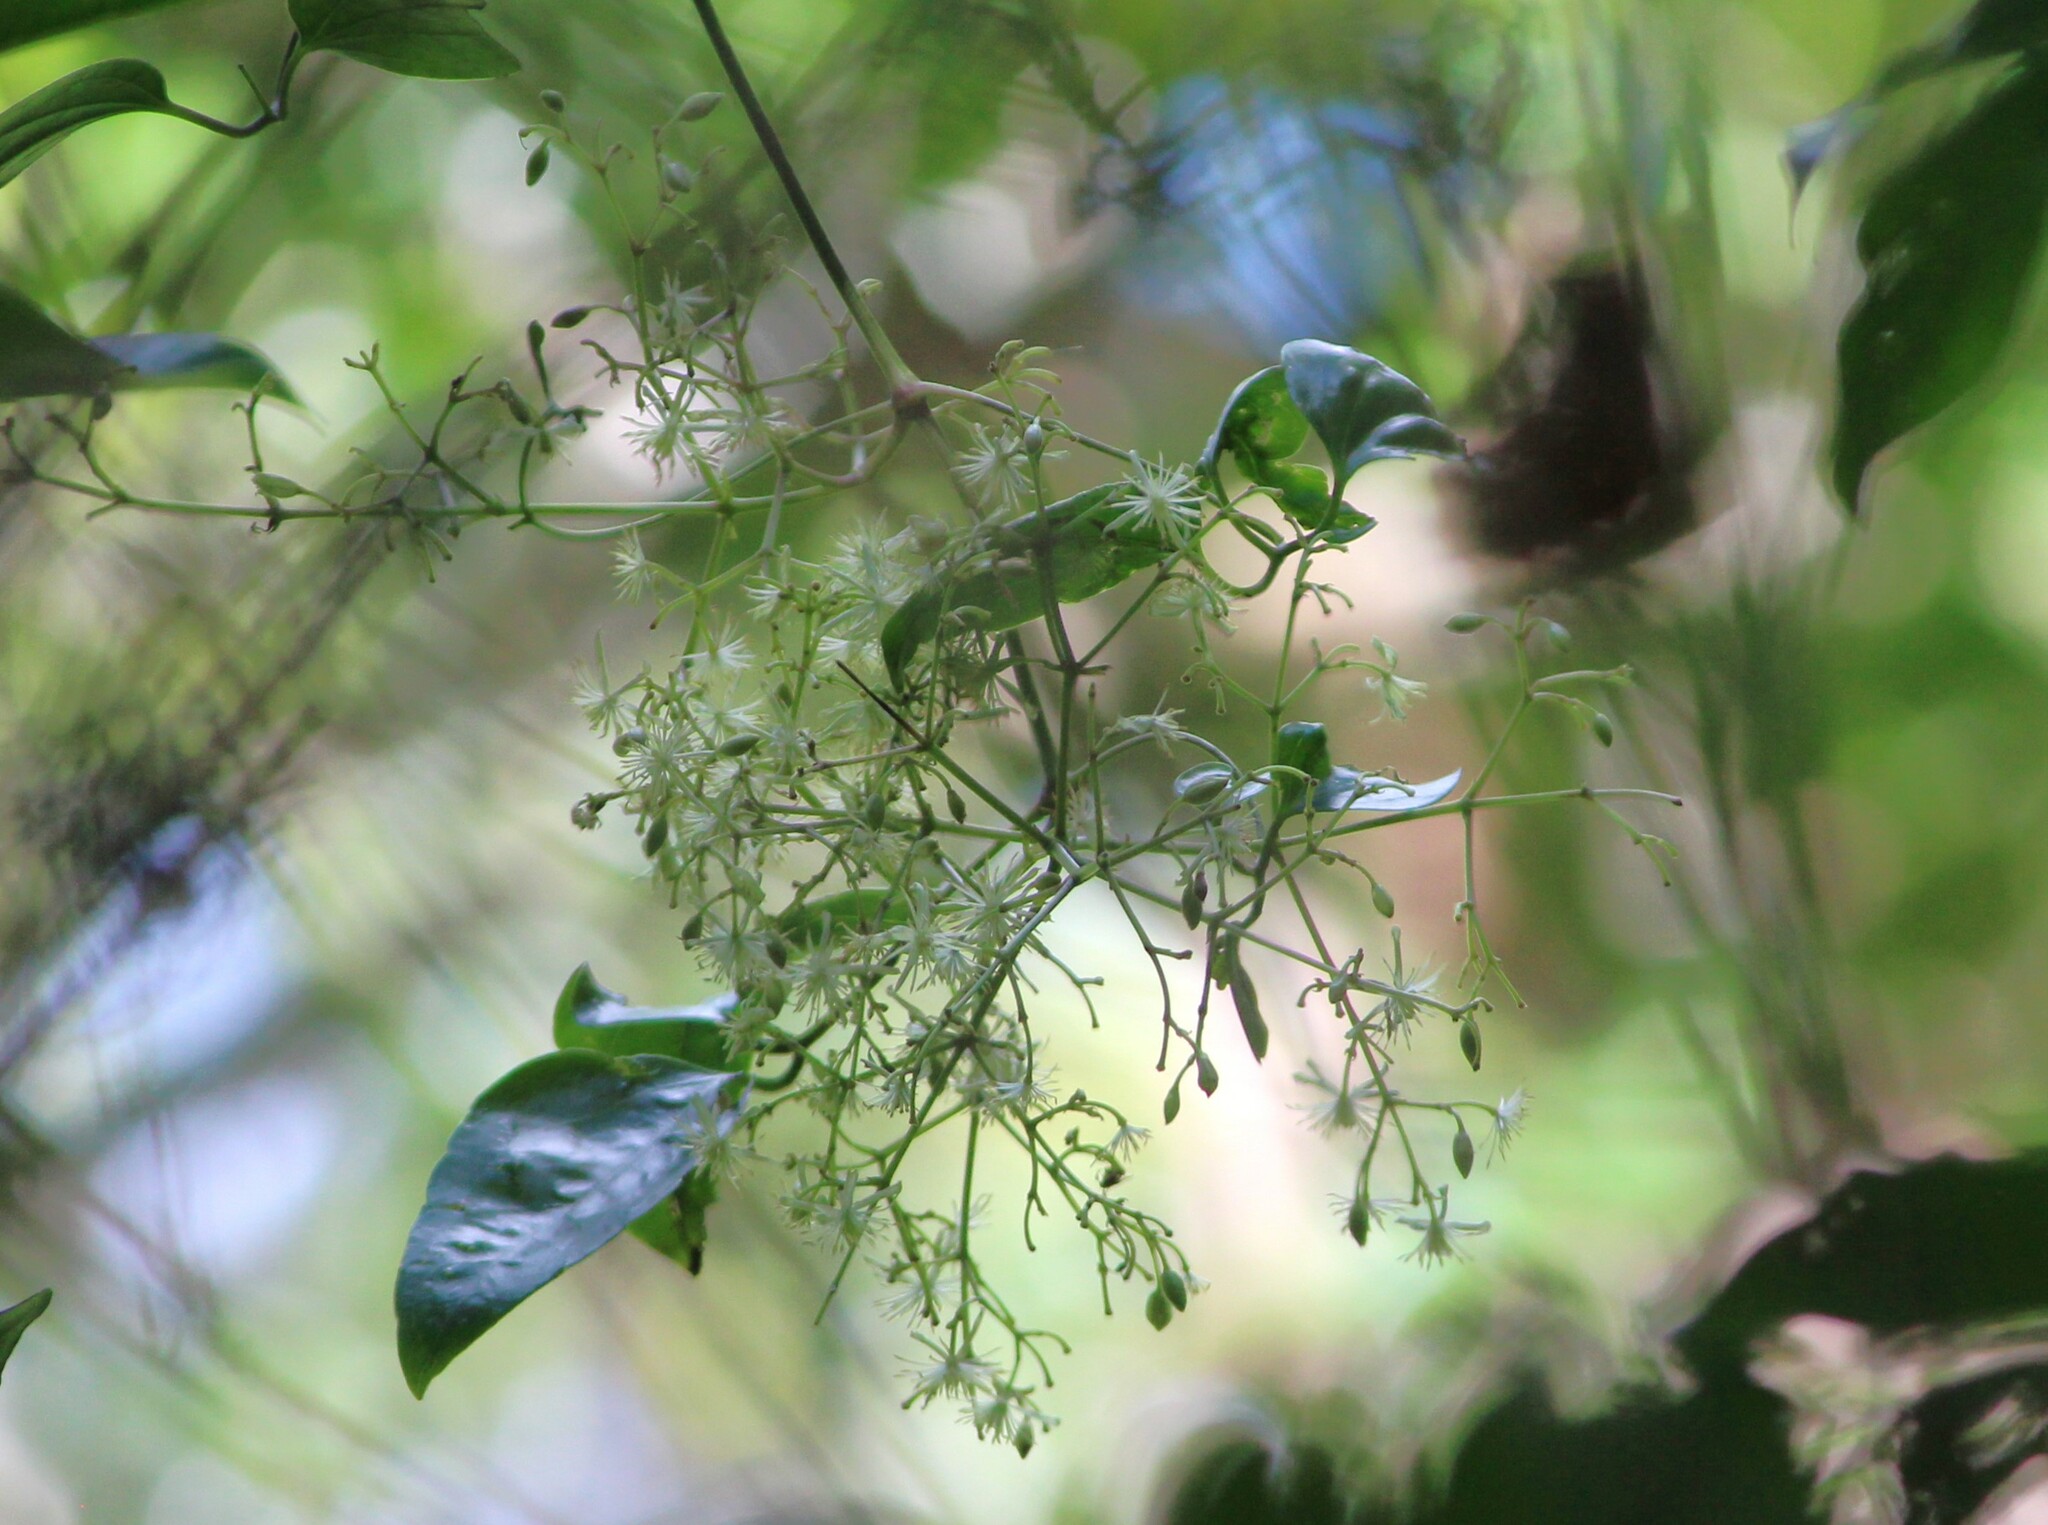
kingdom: Plantae
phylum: Tracheophyta
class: Magnoliopsida
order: Ranunculales
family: Ranunculaceae
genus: Clematis
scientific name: Clematis pickeringii
